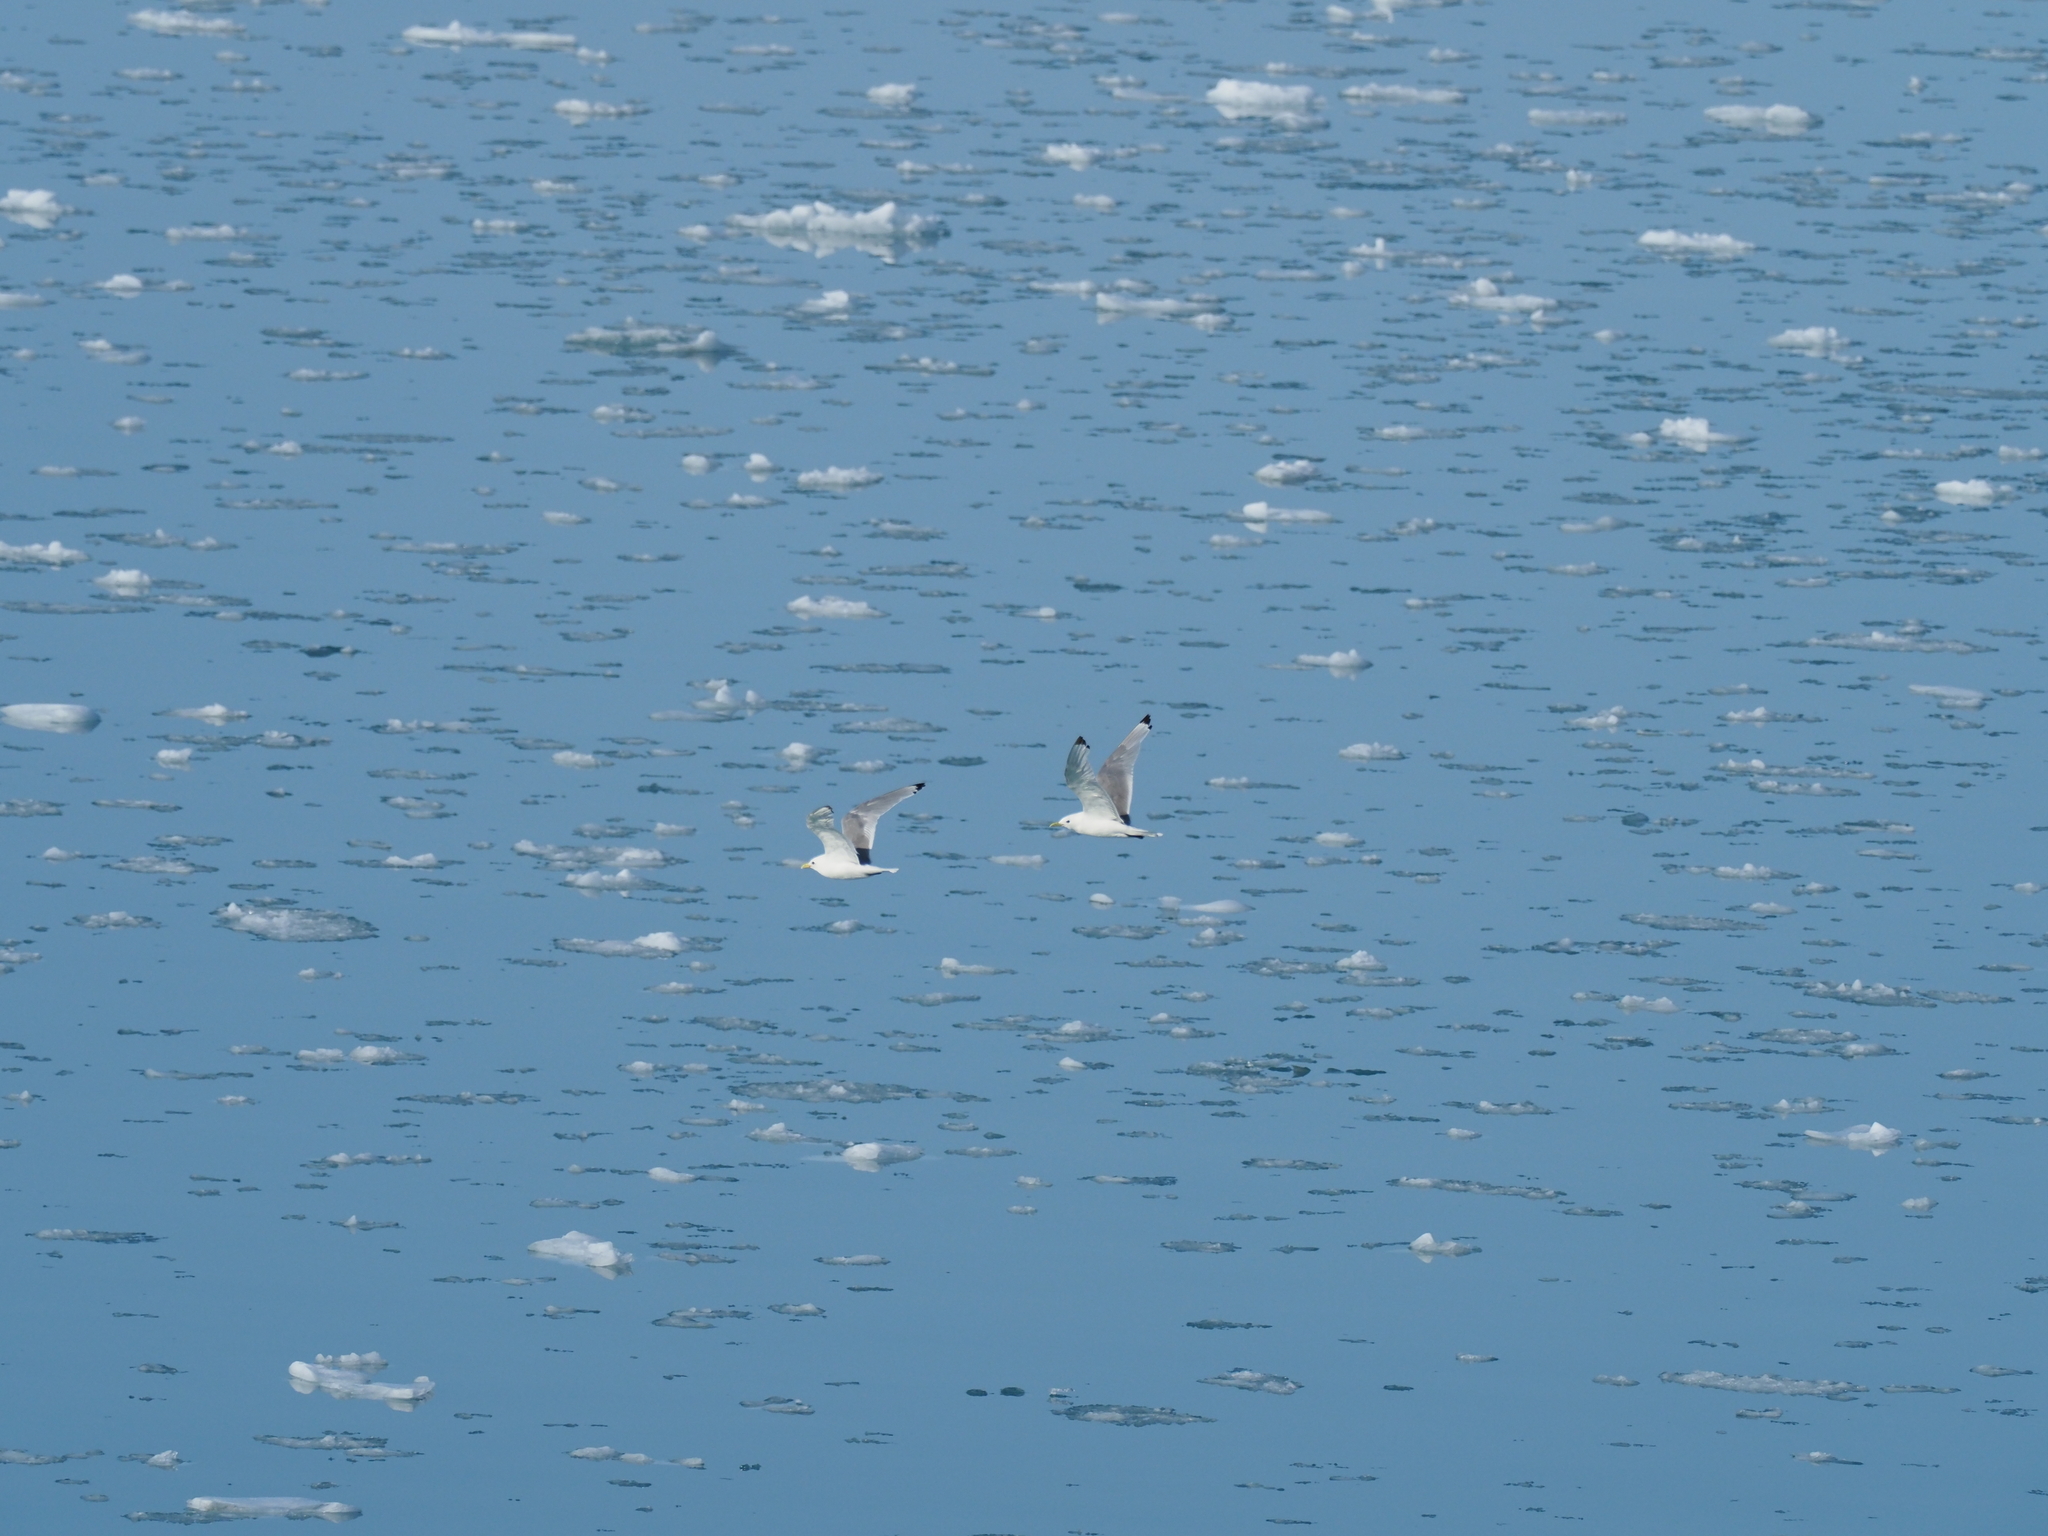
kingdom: Animalia
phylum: Chordata
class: Aves
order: Charadriiformes
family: Laridae
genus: Rissa
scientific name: Rissa tridactyla
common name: Black-legged kittiwake
